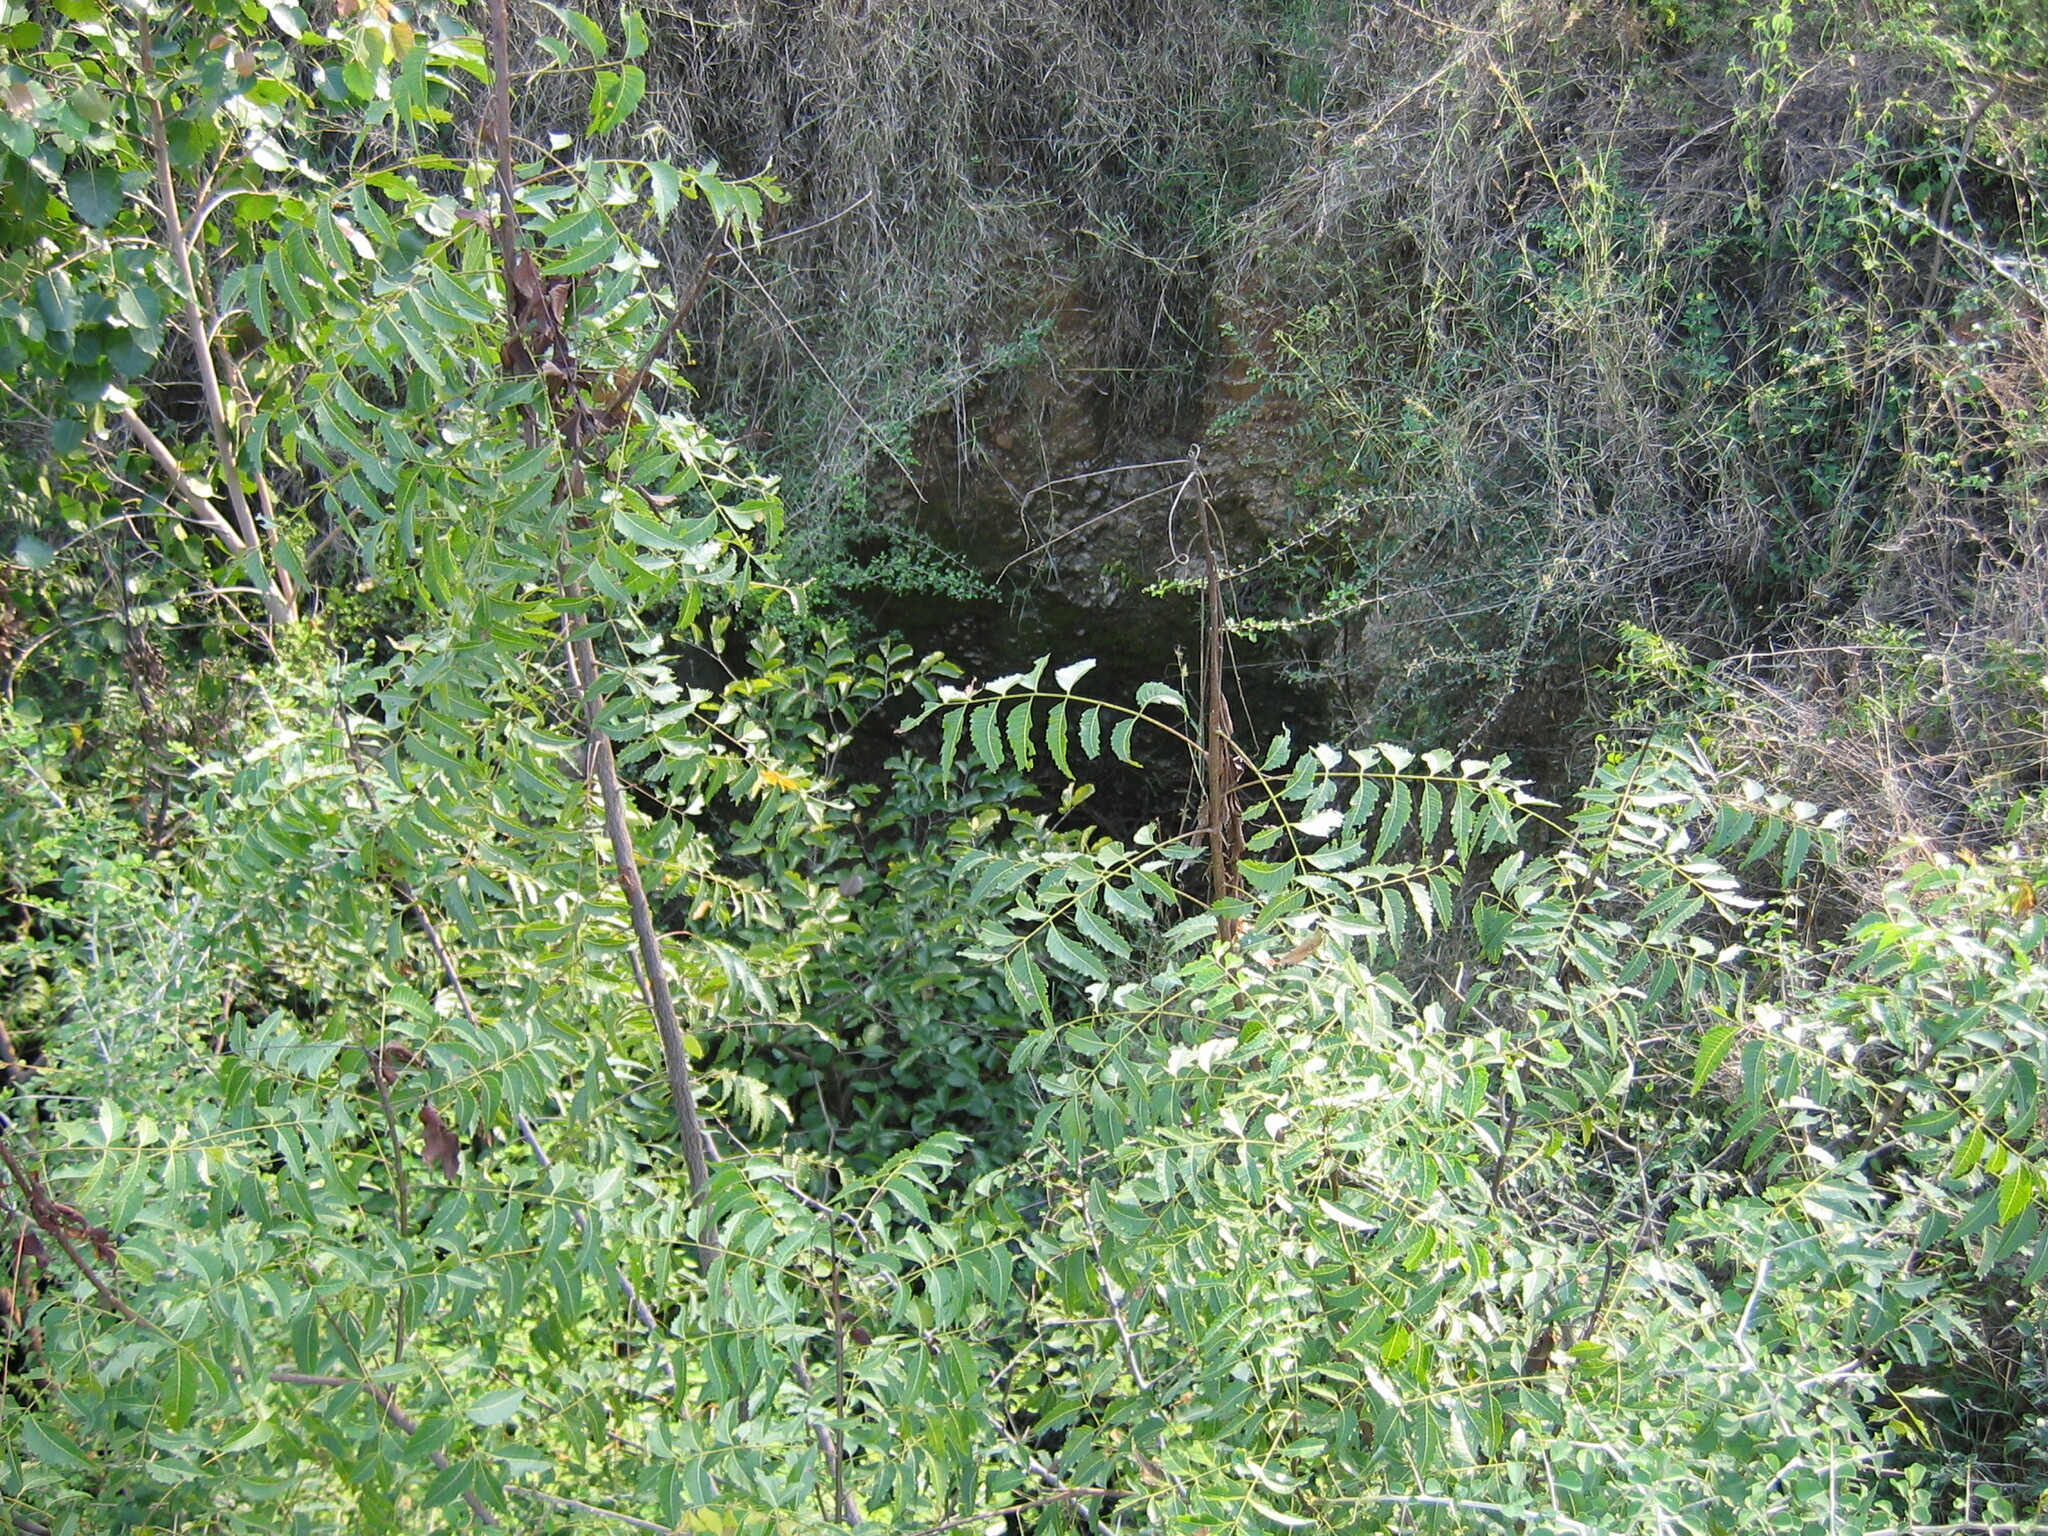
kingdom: Plantae
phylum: Tracheophyta
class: Magnoliopsida
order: Sapindales
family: Meliaceae
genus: Azadirachta
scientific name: Azadirachta indica
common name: Neem
